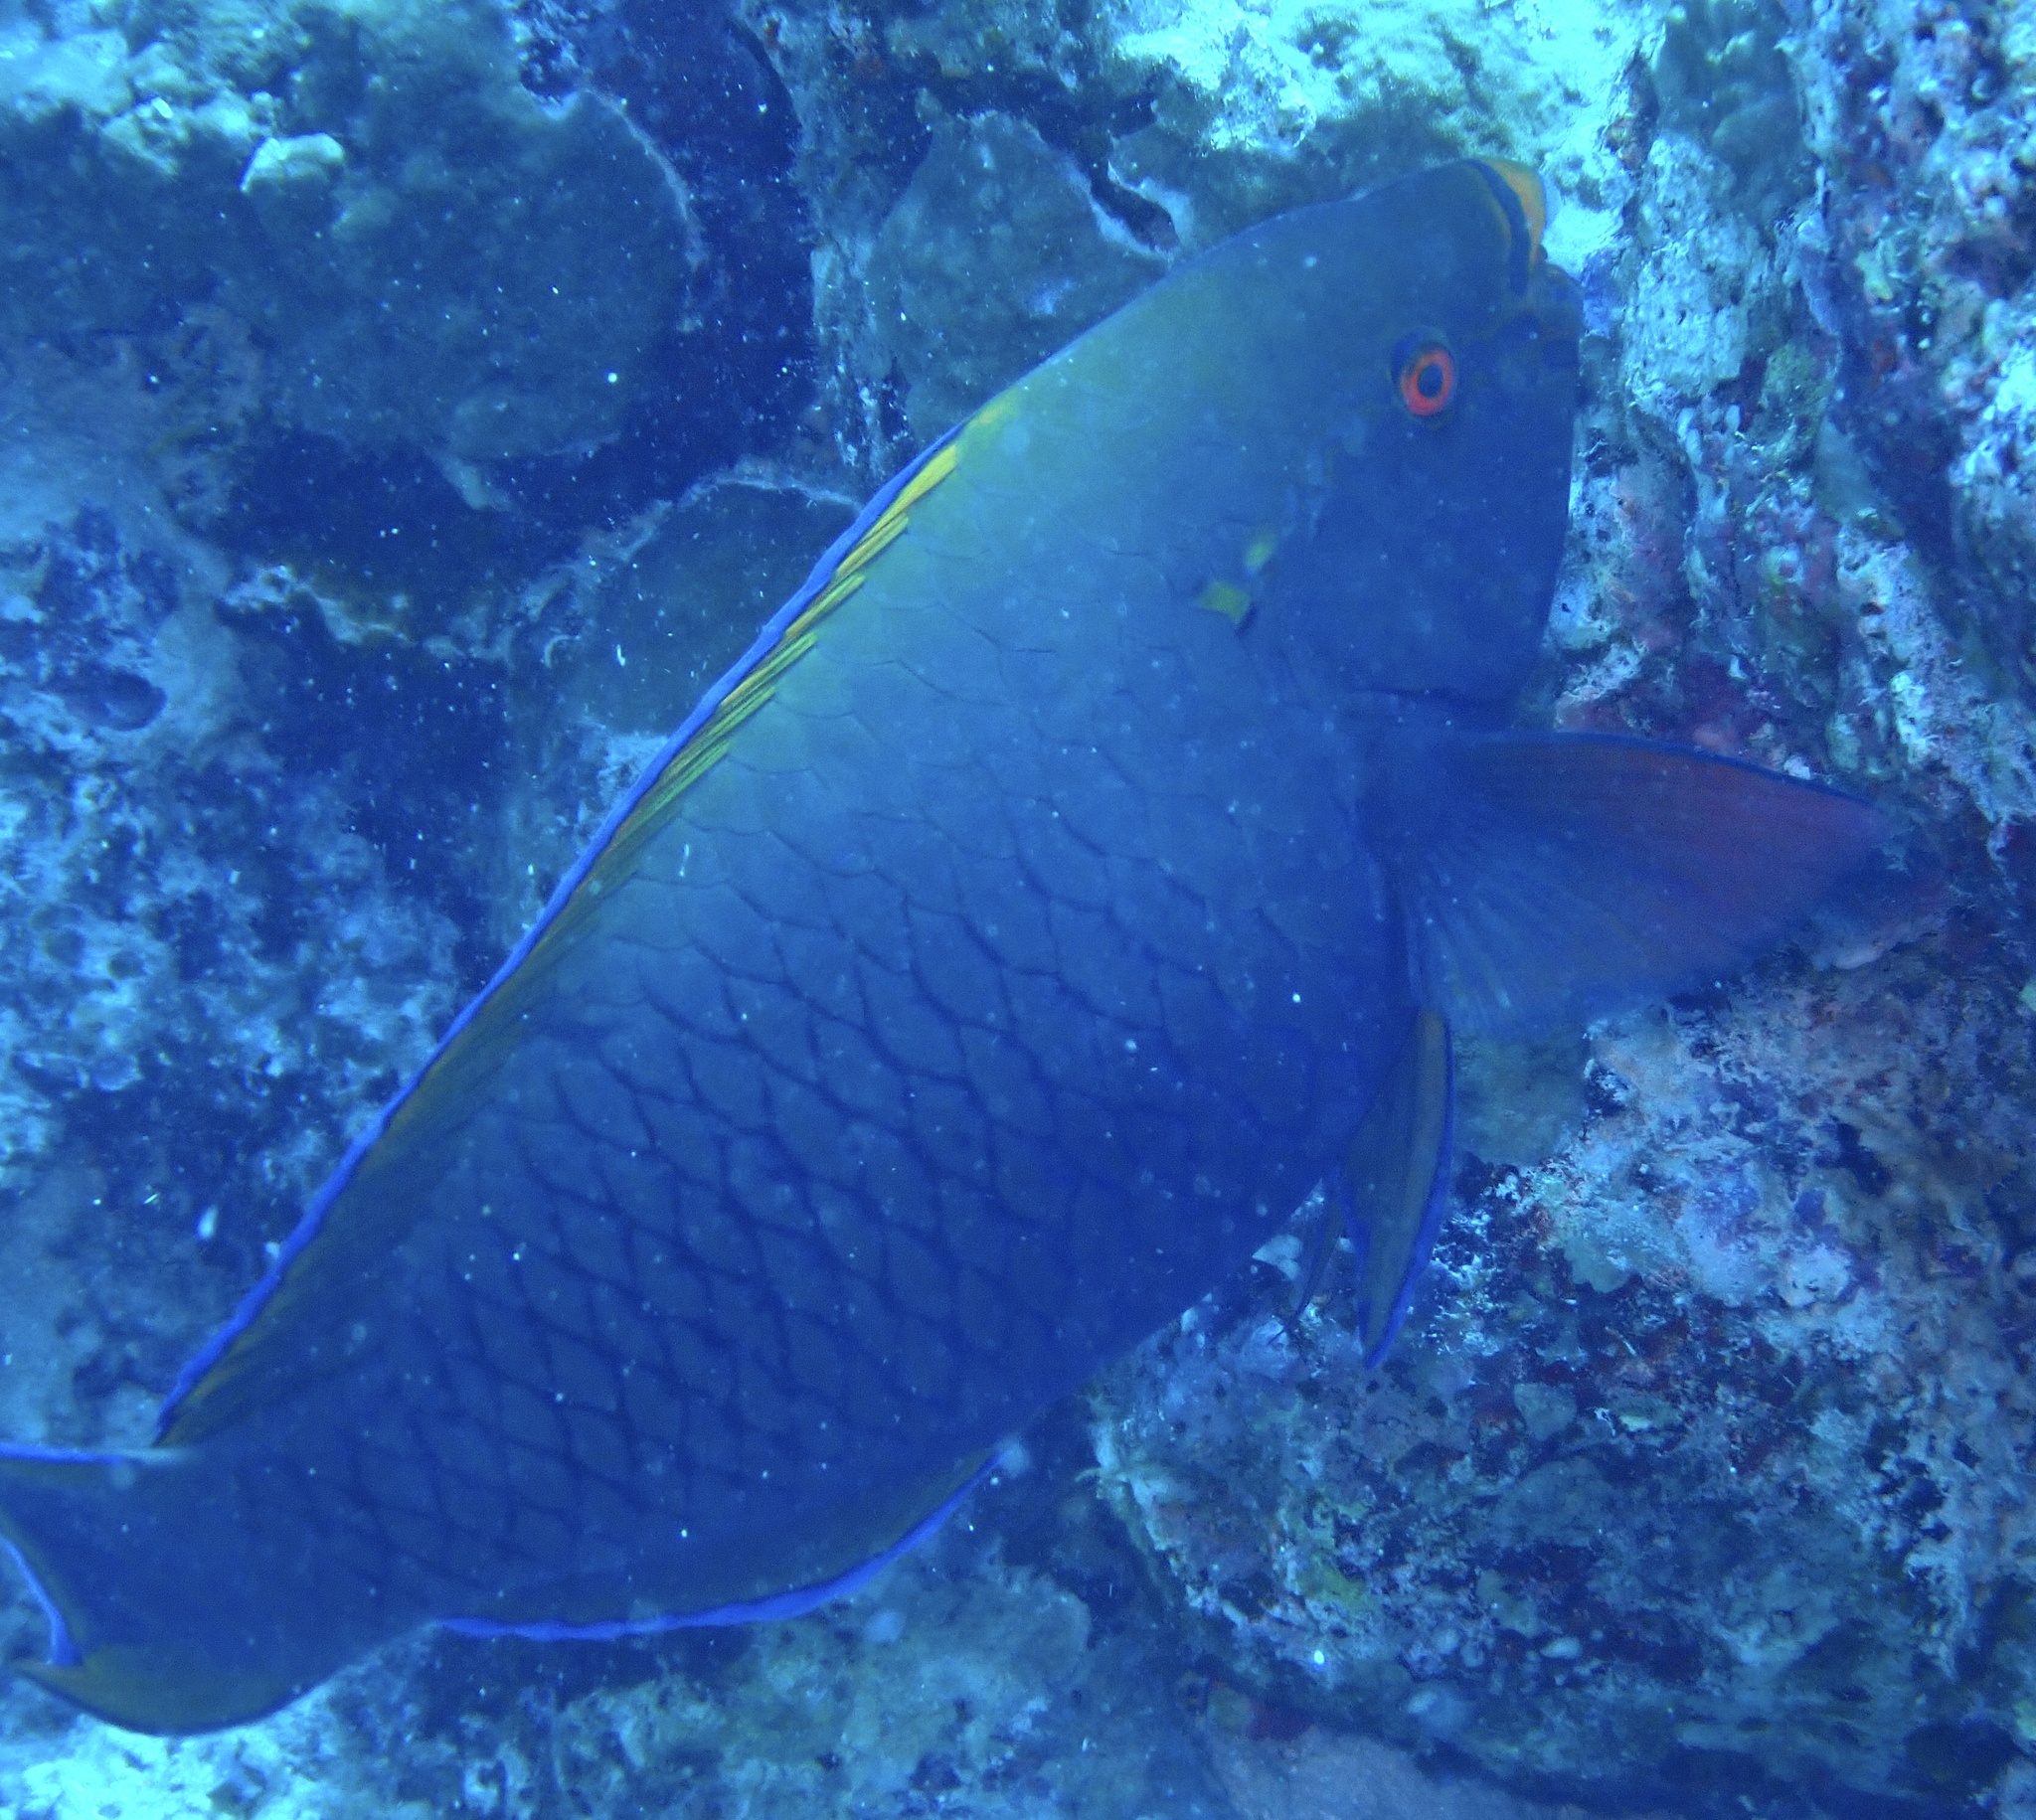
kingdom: Animalia
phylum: Chordata
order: Perciformes
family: Scaridae
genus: Scarus
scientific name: Scarus niger
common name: Dusky parrotfish
